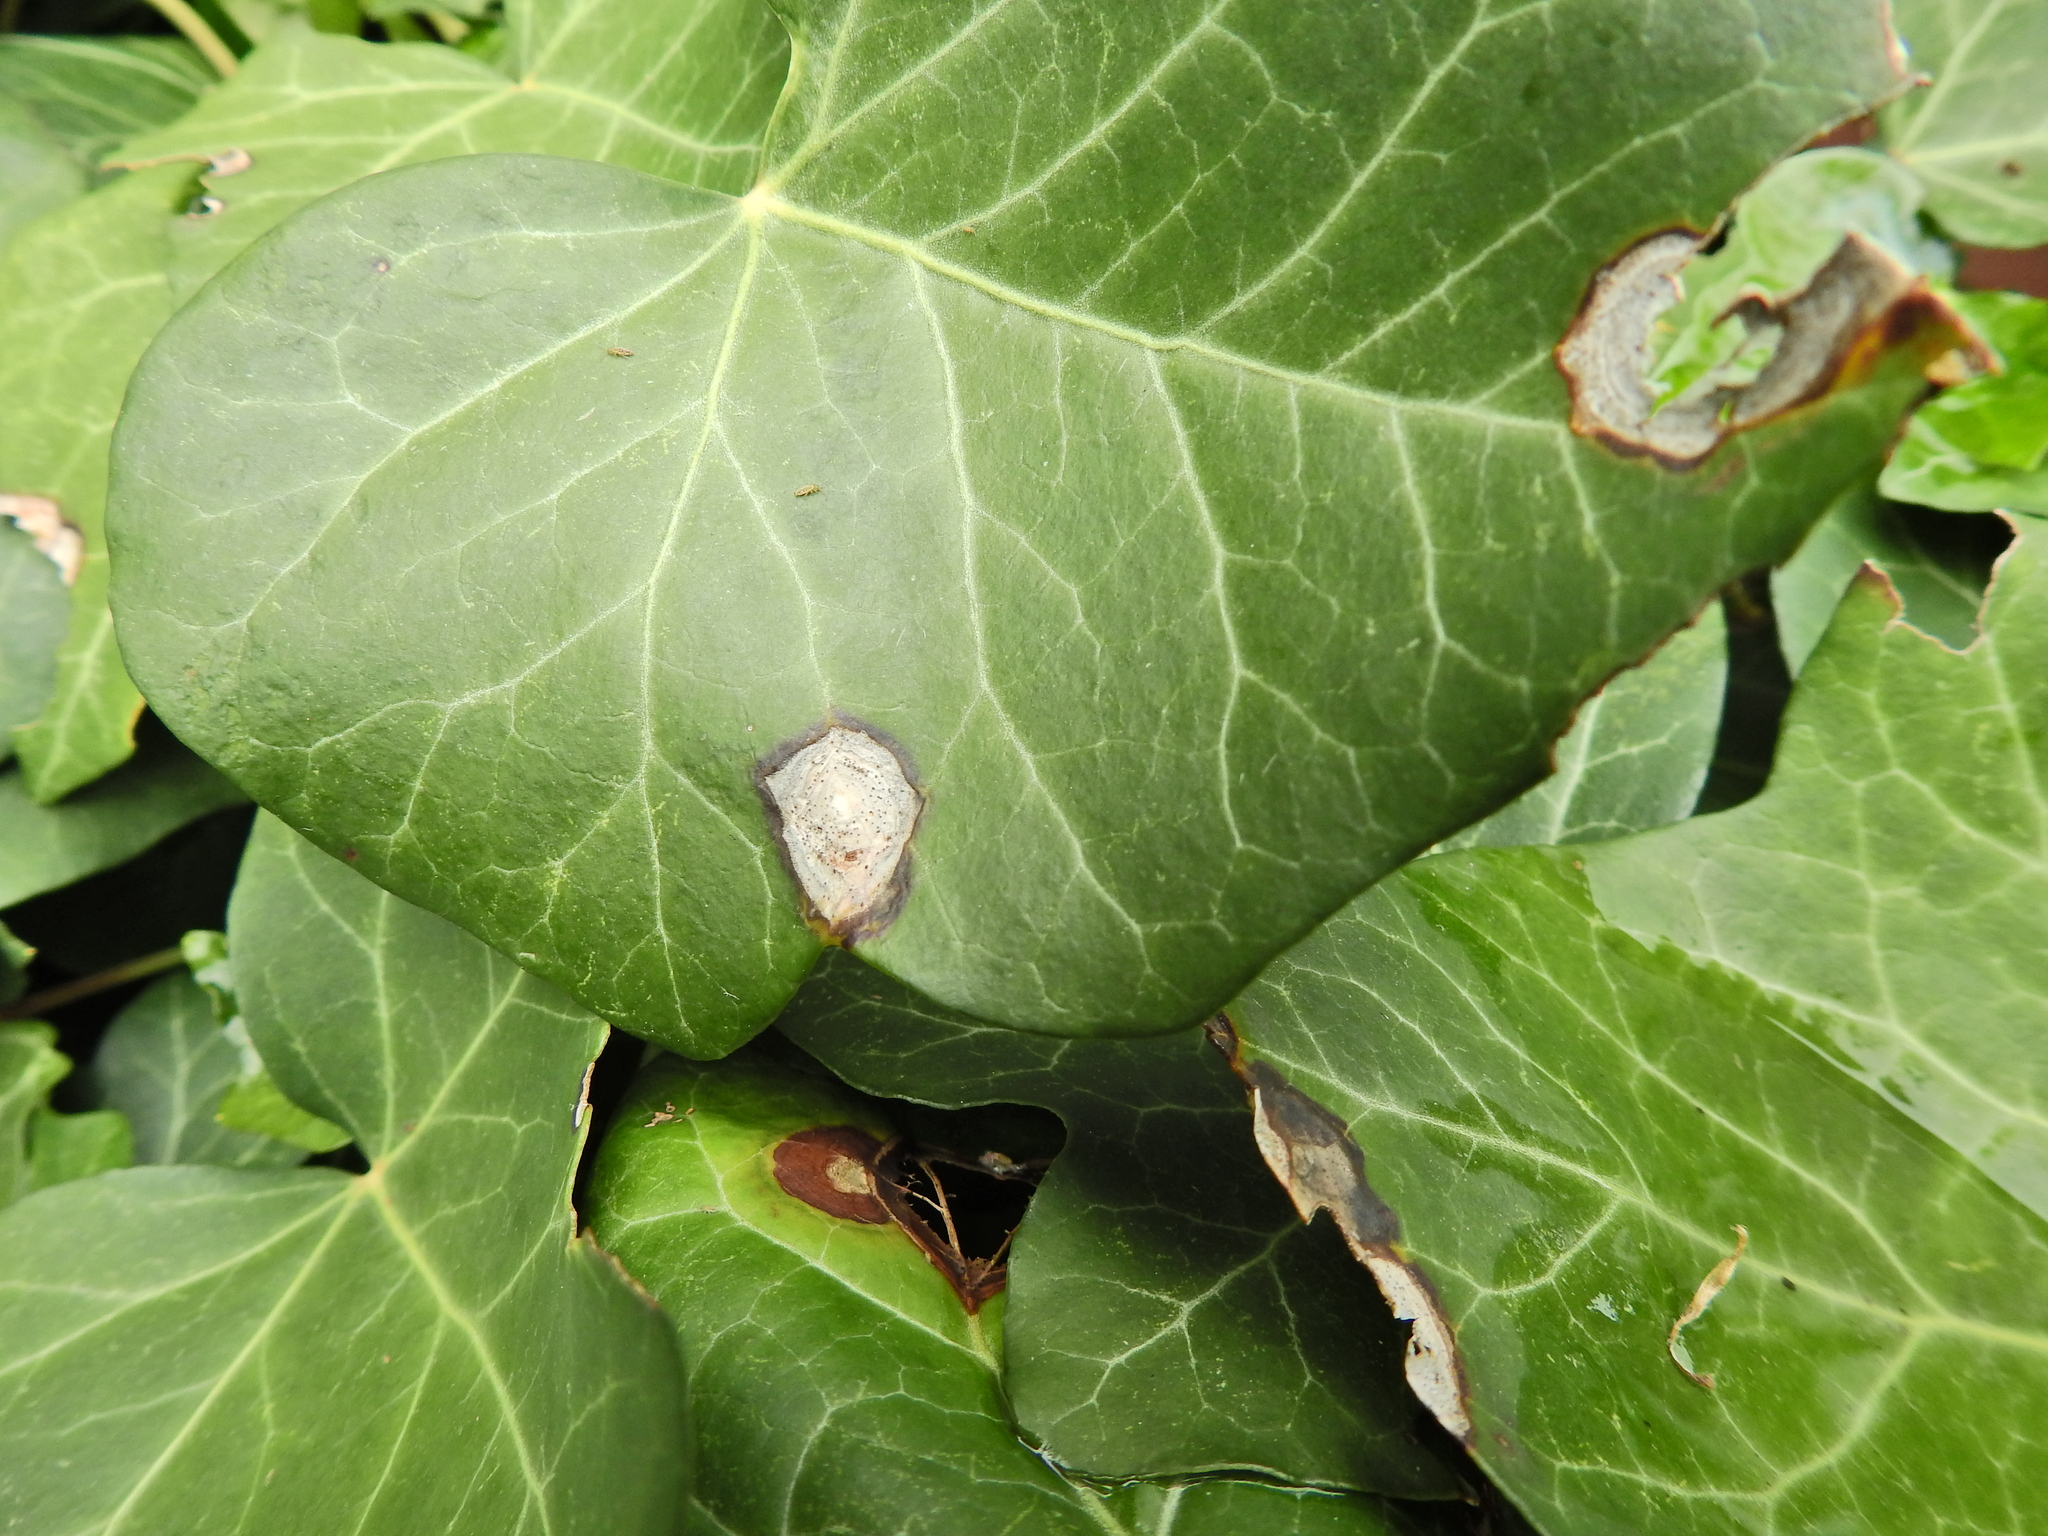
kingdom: Fungi
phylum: Ascomycota
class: Dothideomycetes
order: Pleosporales
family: Didymellaceae
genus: Boeremia
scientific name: Boeremia hedericola
